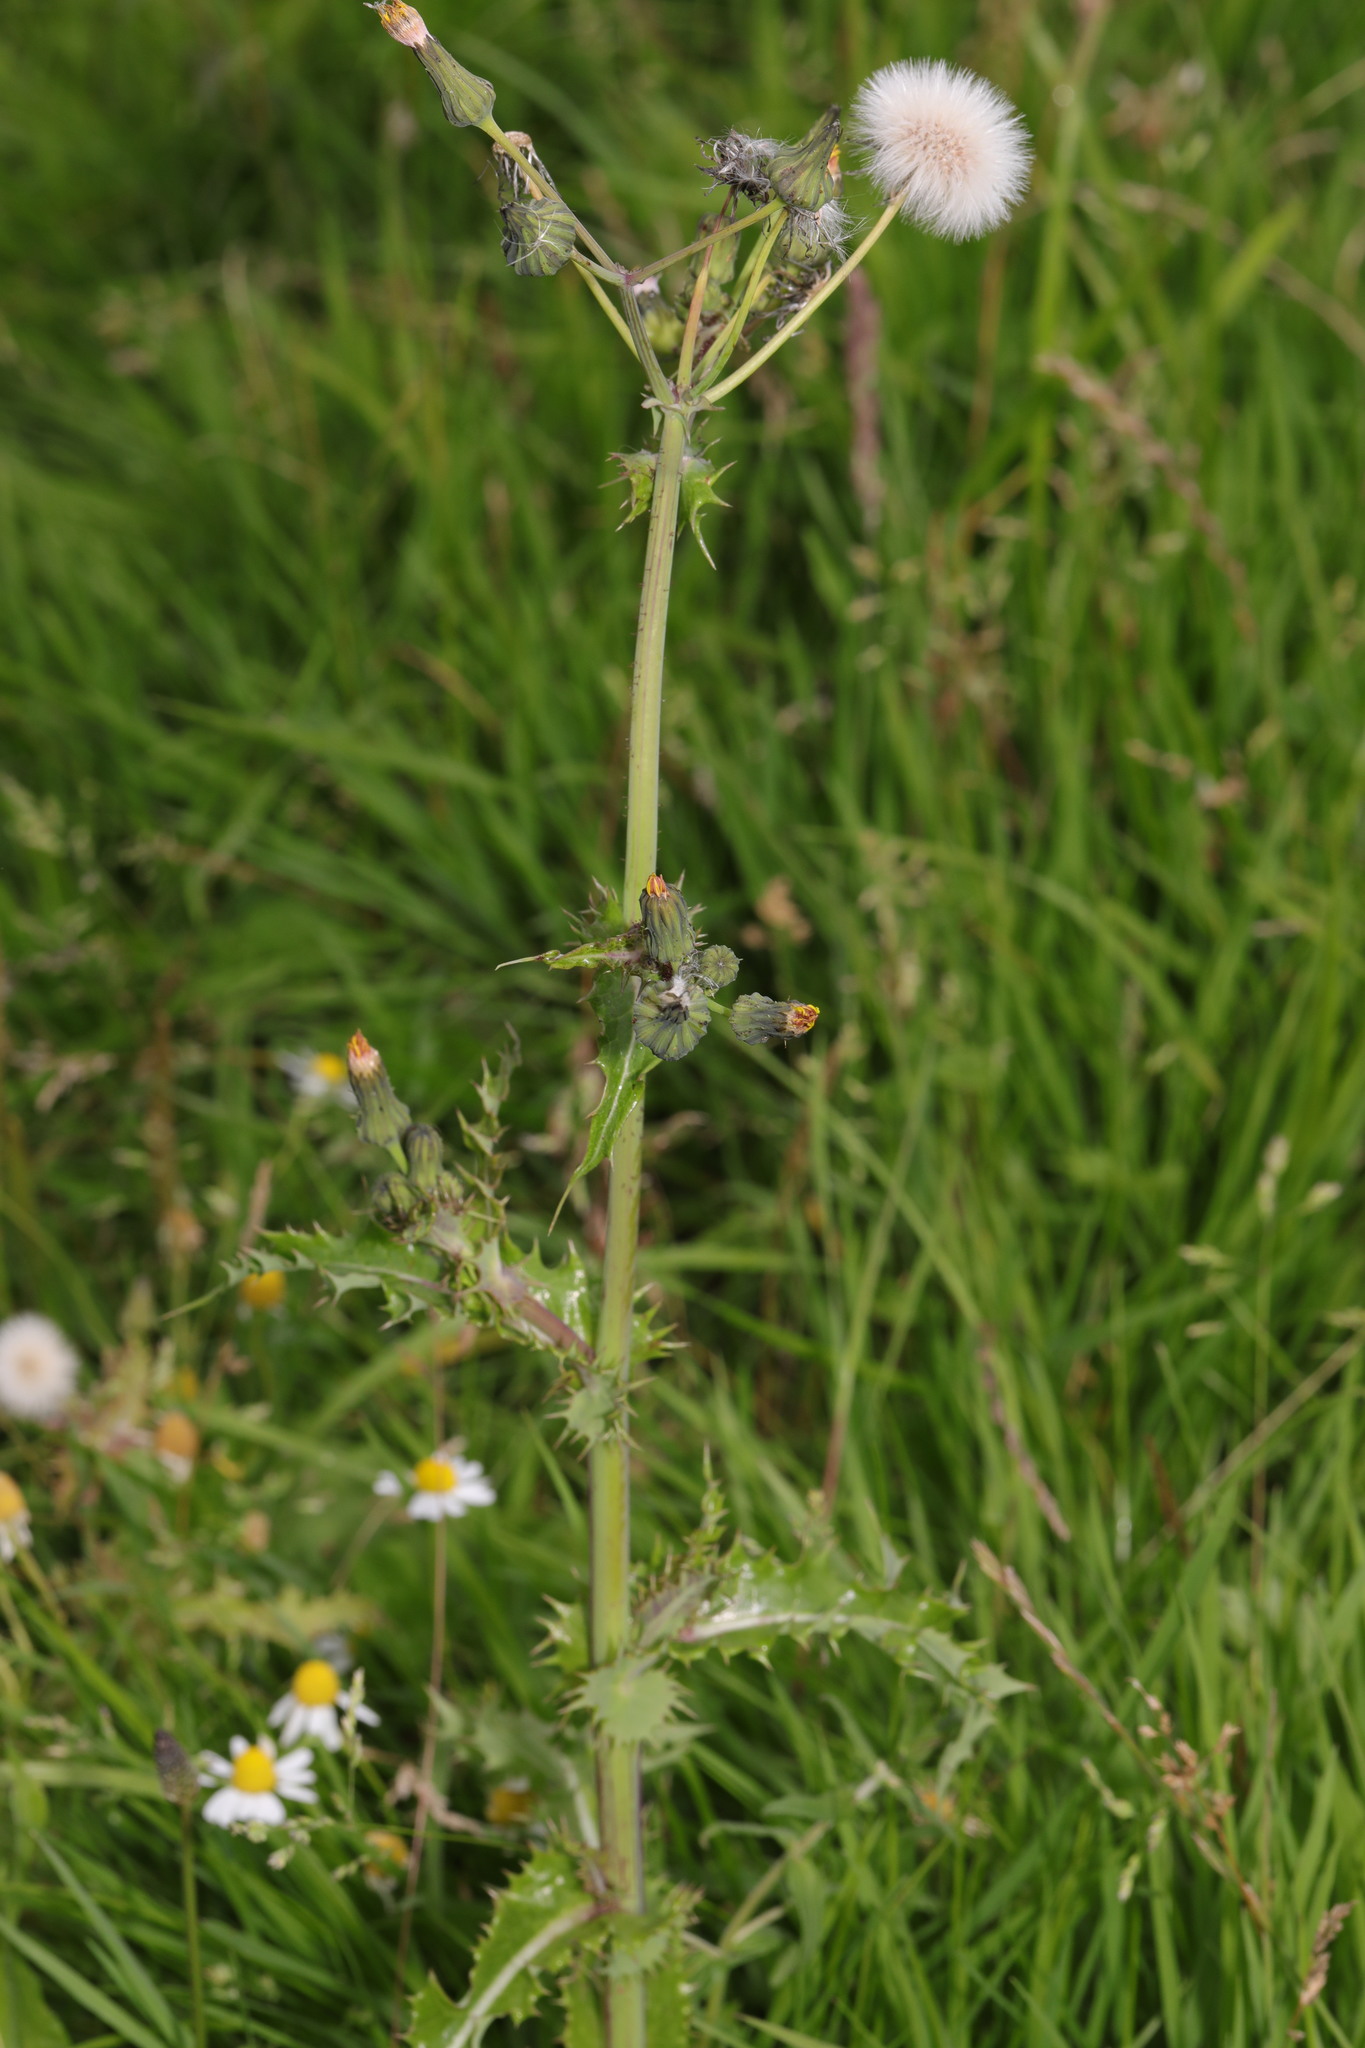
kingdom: Plantae
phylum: Tracheophyta
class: Magnoliopsida
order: Asterales
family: Asteraceae
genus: Sonchus
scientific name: Sonchus asper
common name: Prickly sow-thistle
